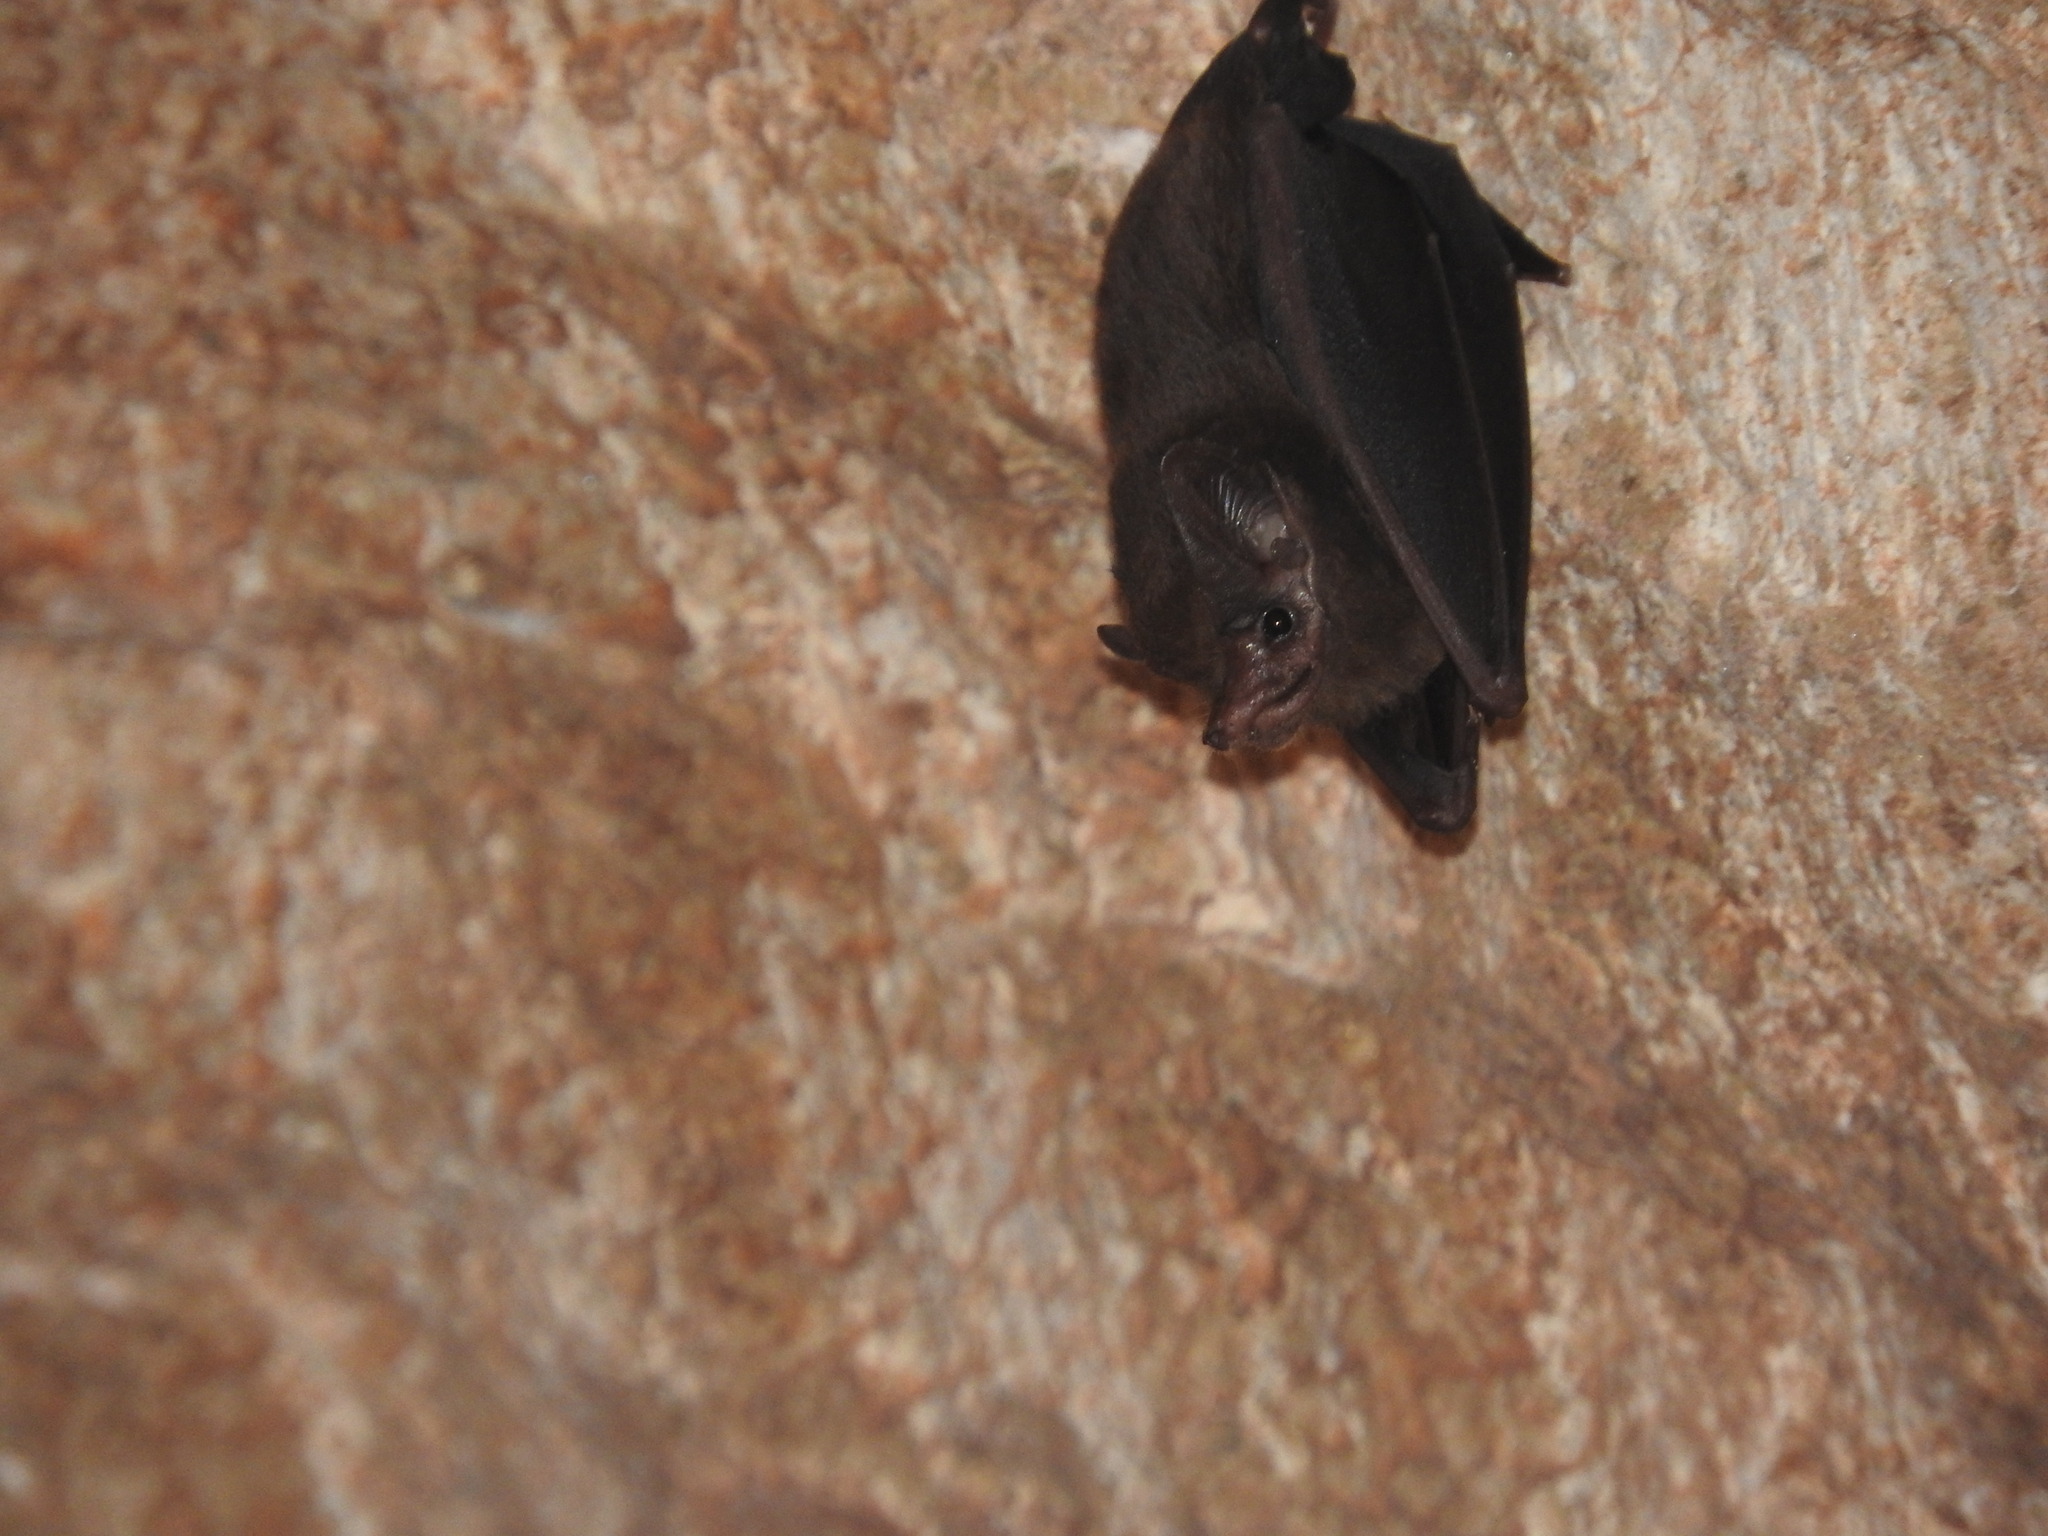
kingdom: Animalia
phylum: Chordata
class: Mammalia
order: Chiroptera
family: Emballonuridae
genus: Peropteryx
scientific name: Peropteryx macrotis
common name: Lesser dog-like bat
